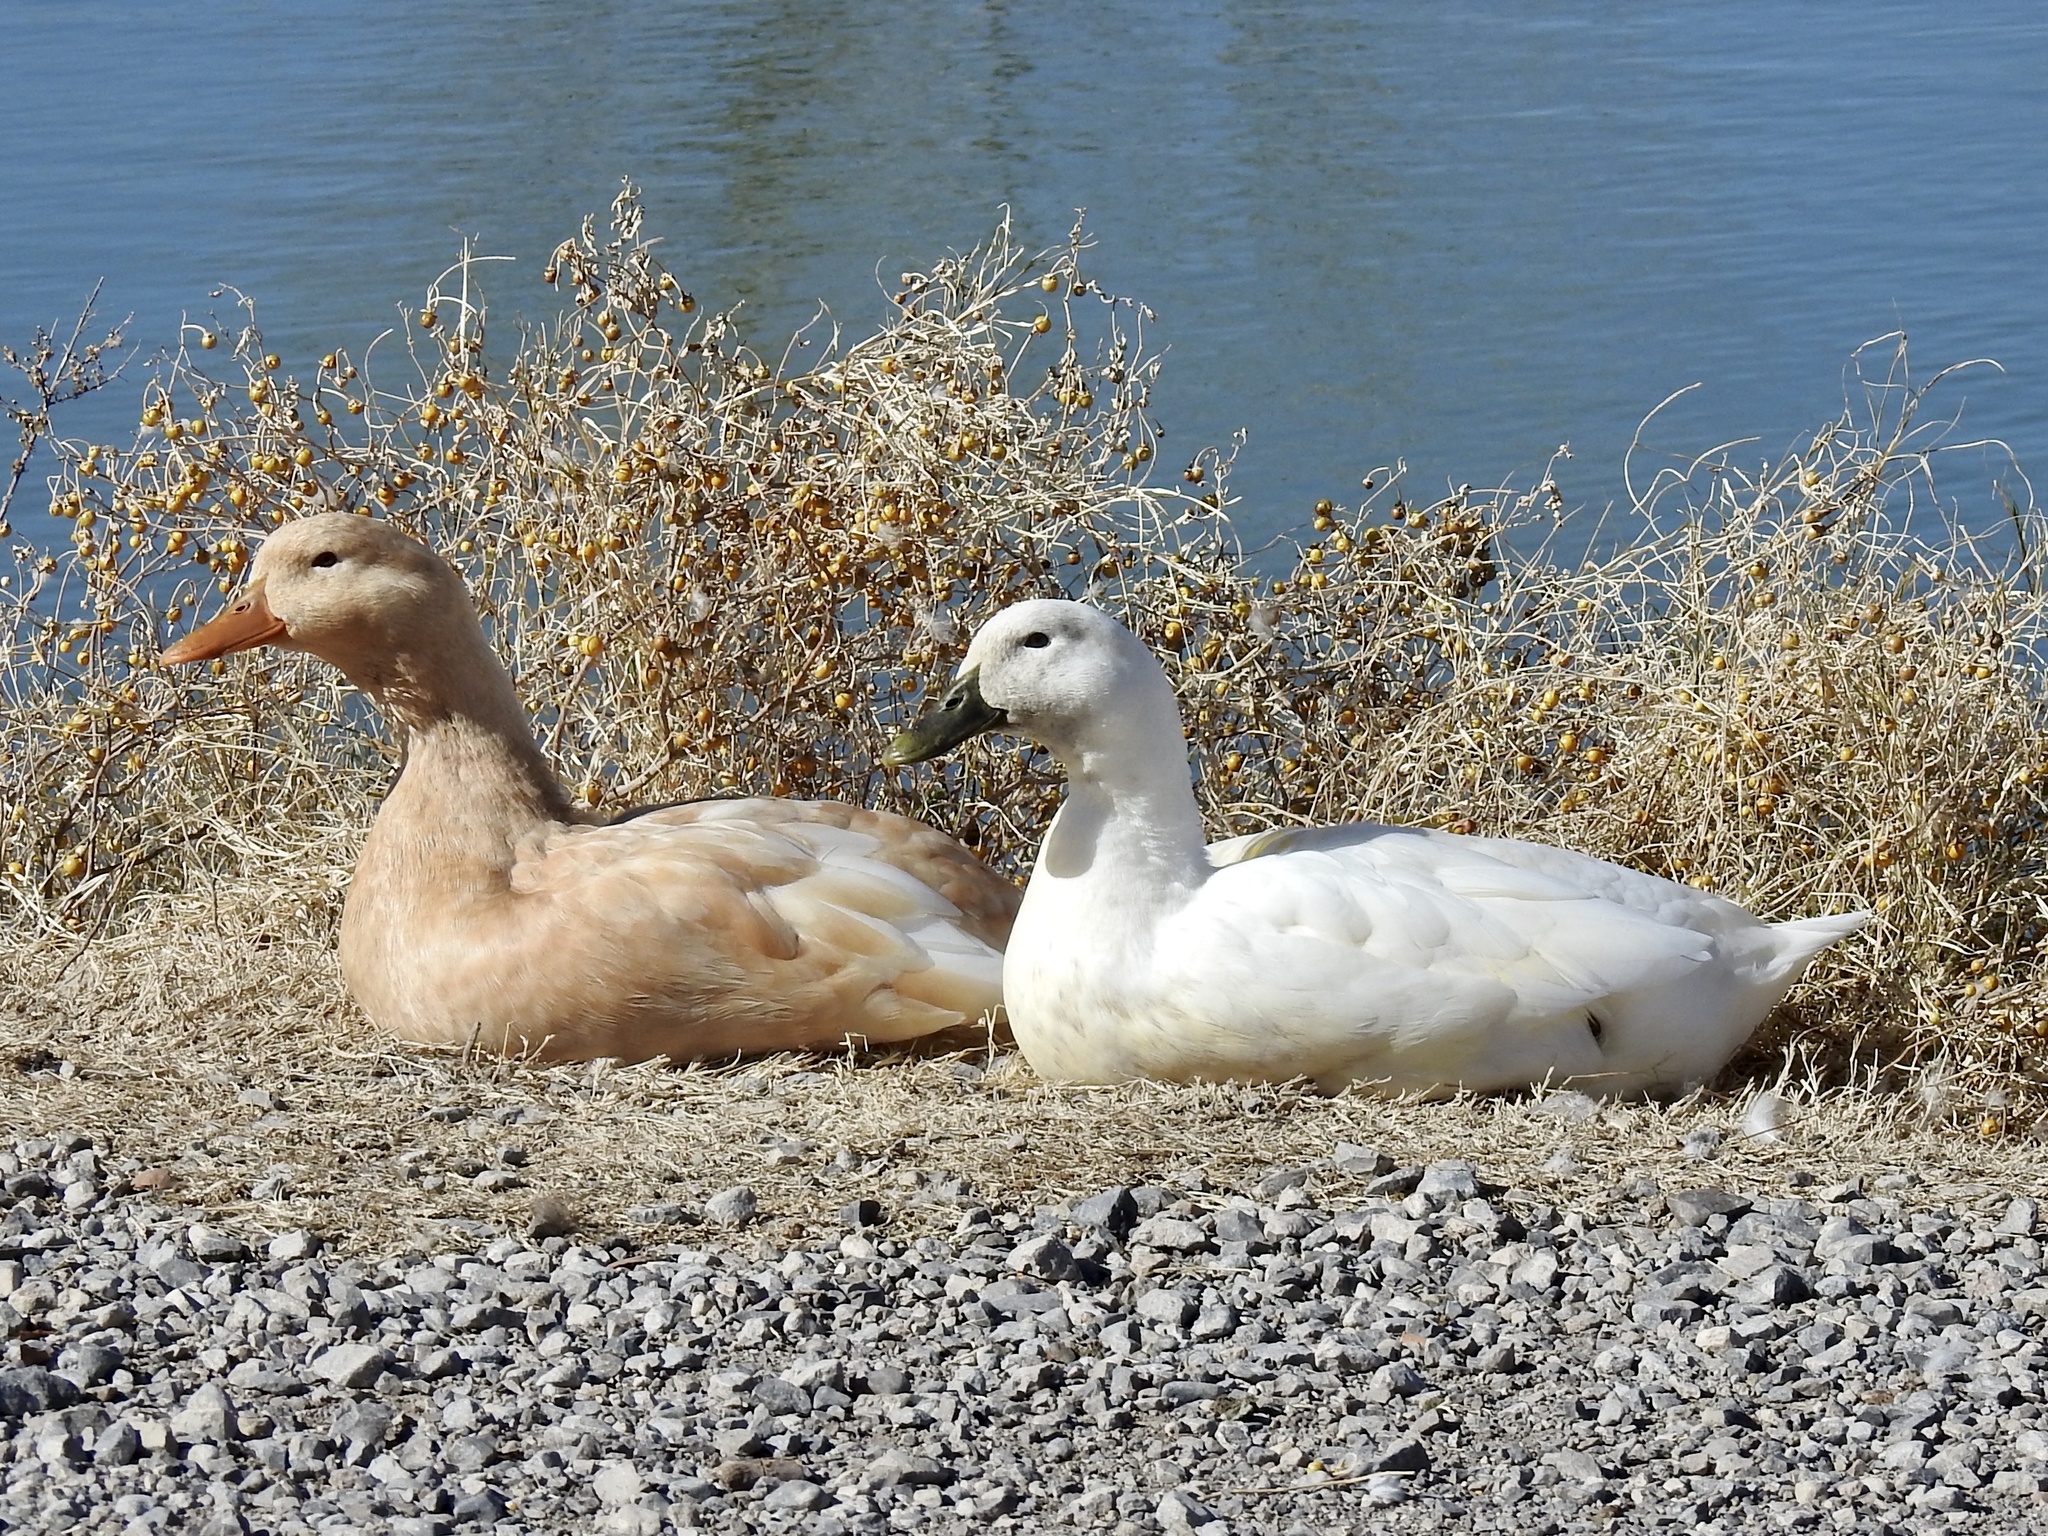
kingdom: Animalia
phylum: Chordata
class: Aves
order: Anseriformes
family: Anatidae
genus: Anas
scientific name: Anas platyrhynchos
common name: Mallard
